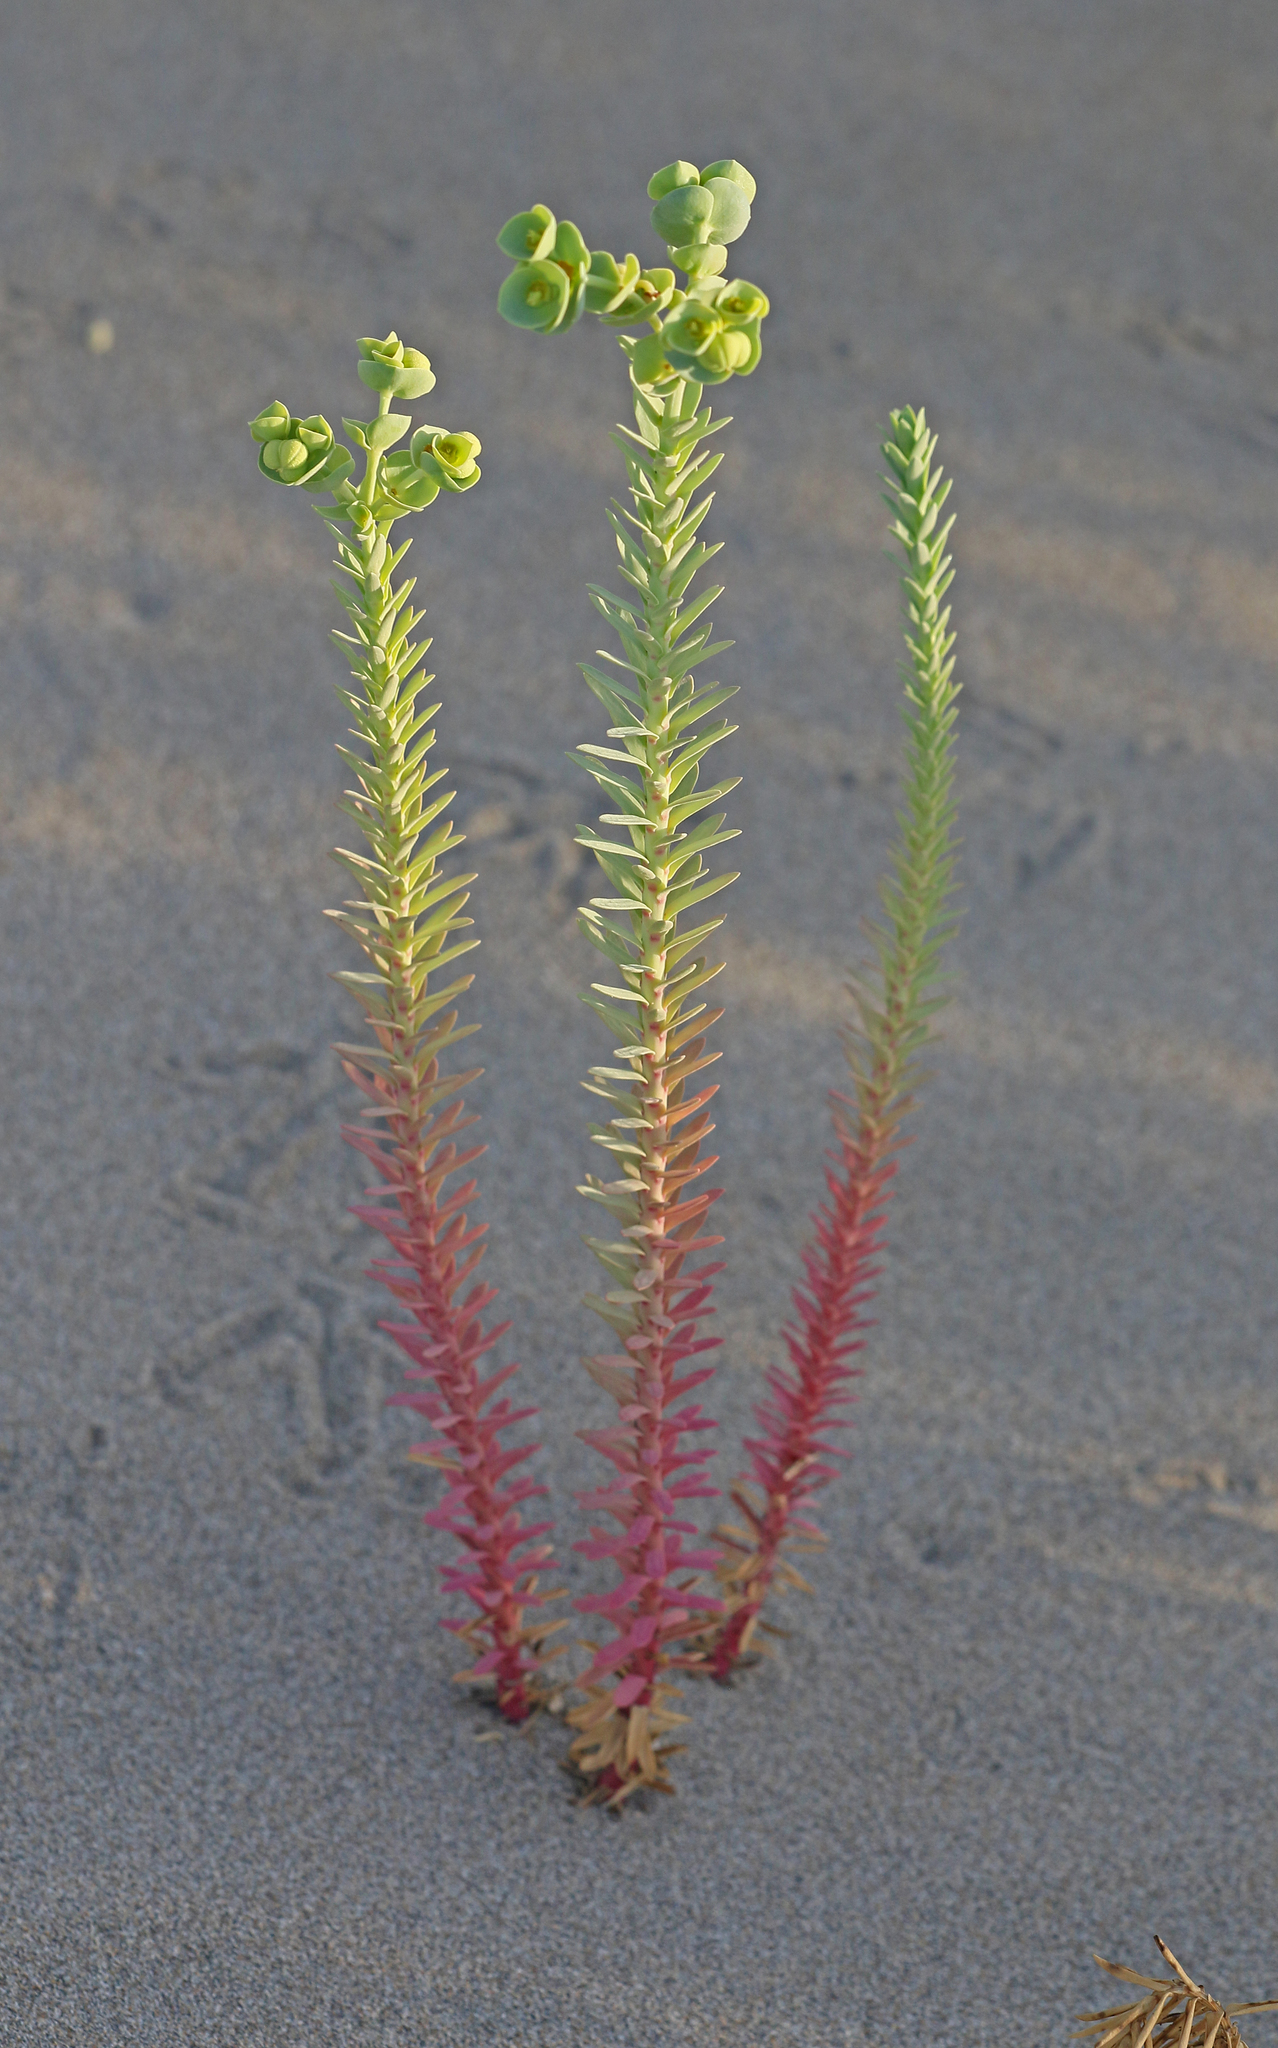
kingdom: Plantae
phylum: Tracheophyta
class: Magnoliopsida
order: Malpighiales
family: Euphorbiaceae
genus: Euphorbia
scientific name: Euphorbia paralias
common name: Sea spurge
